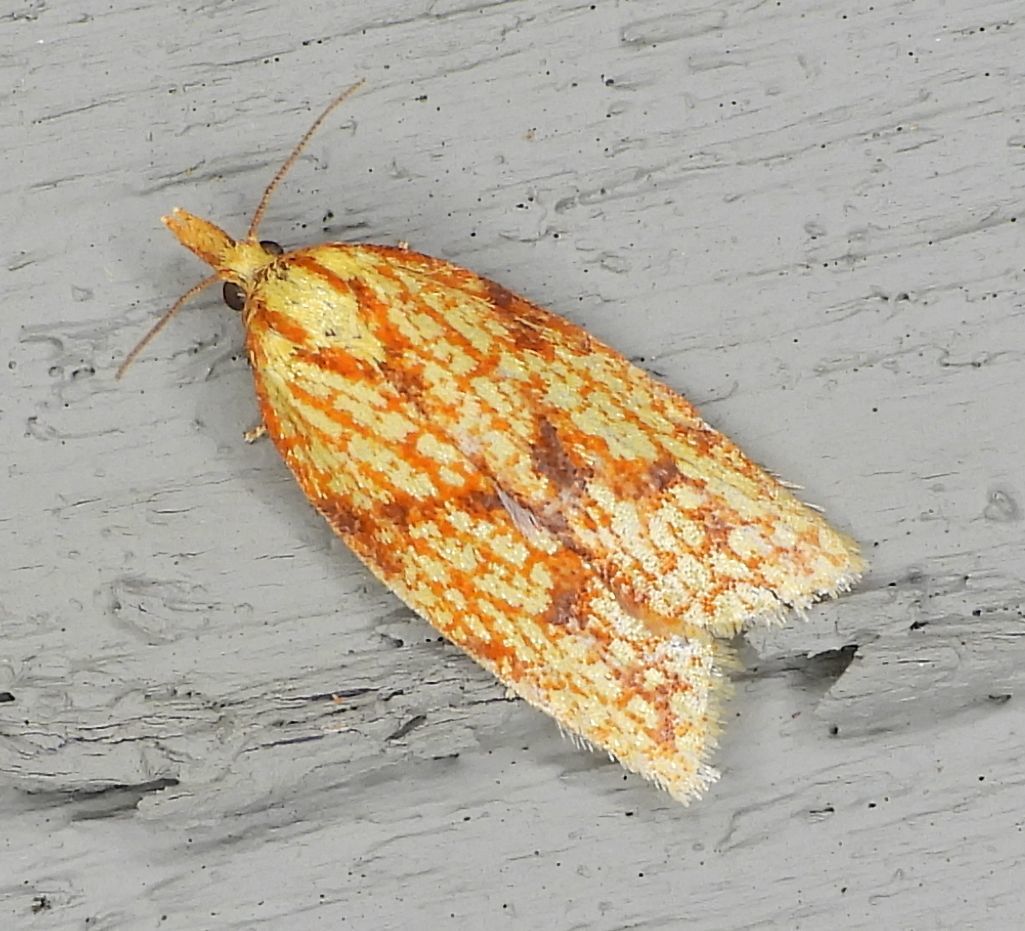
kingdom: Animalia
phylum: Arthropoda
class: Insecta
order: Lepidoptera
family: Tortricidae
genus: Sparganothis
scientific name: Sparganothis sulfureana
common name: Sparganothis fruitworm moth
